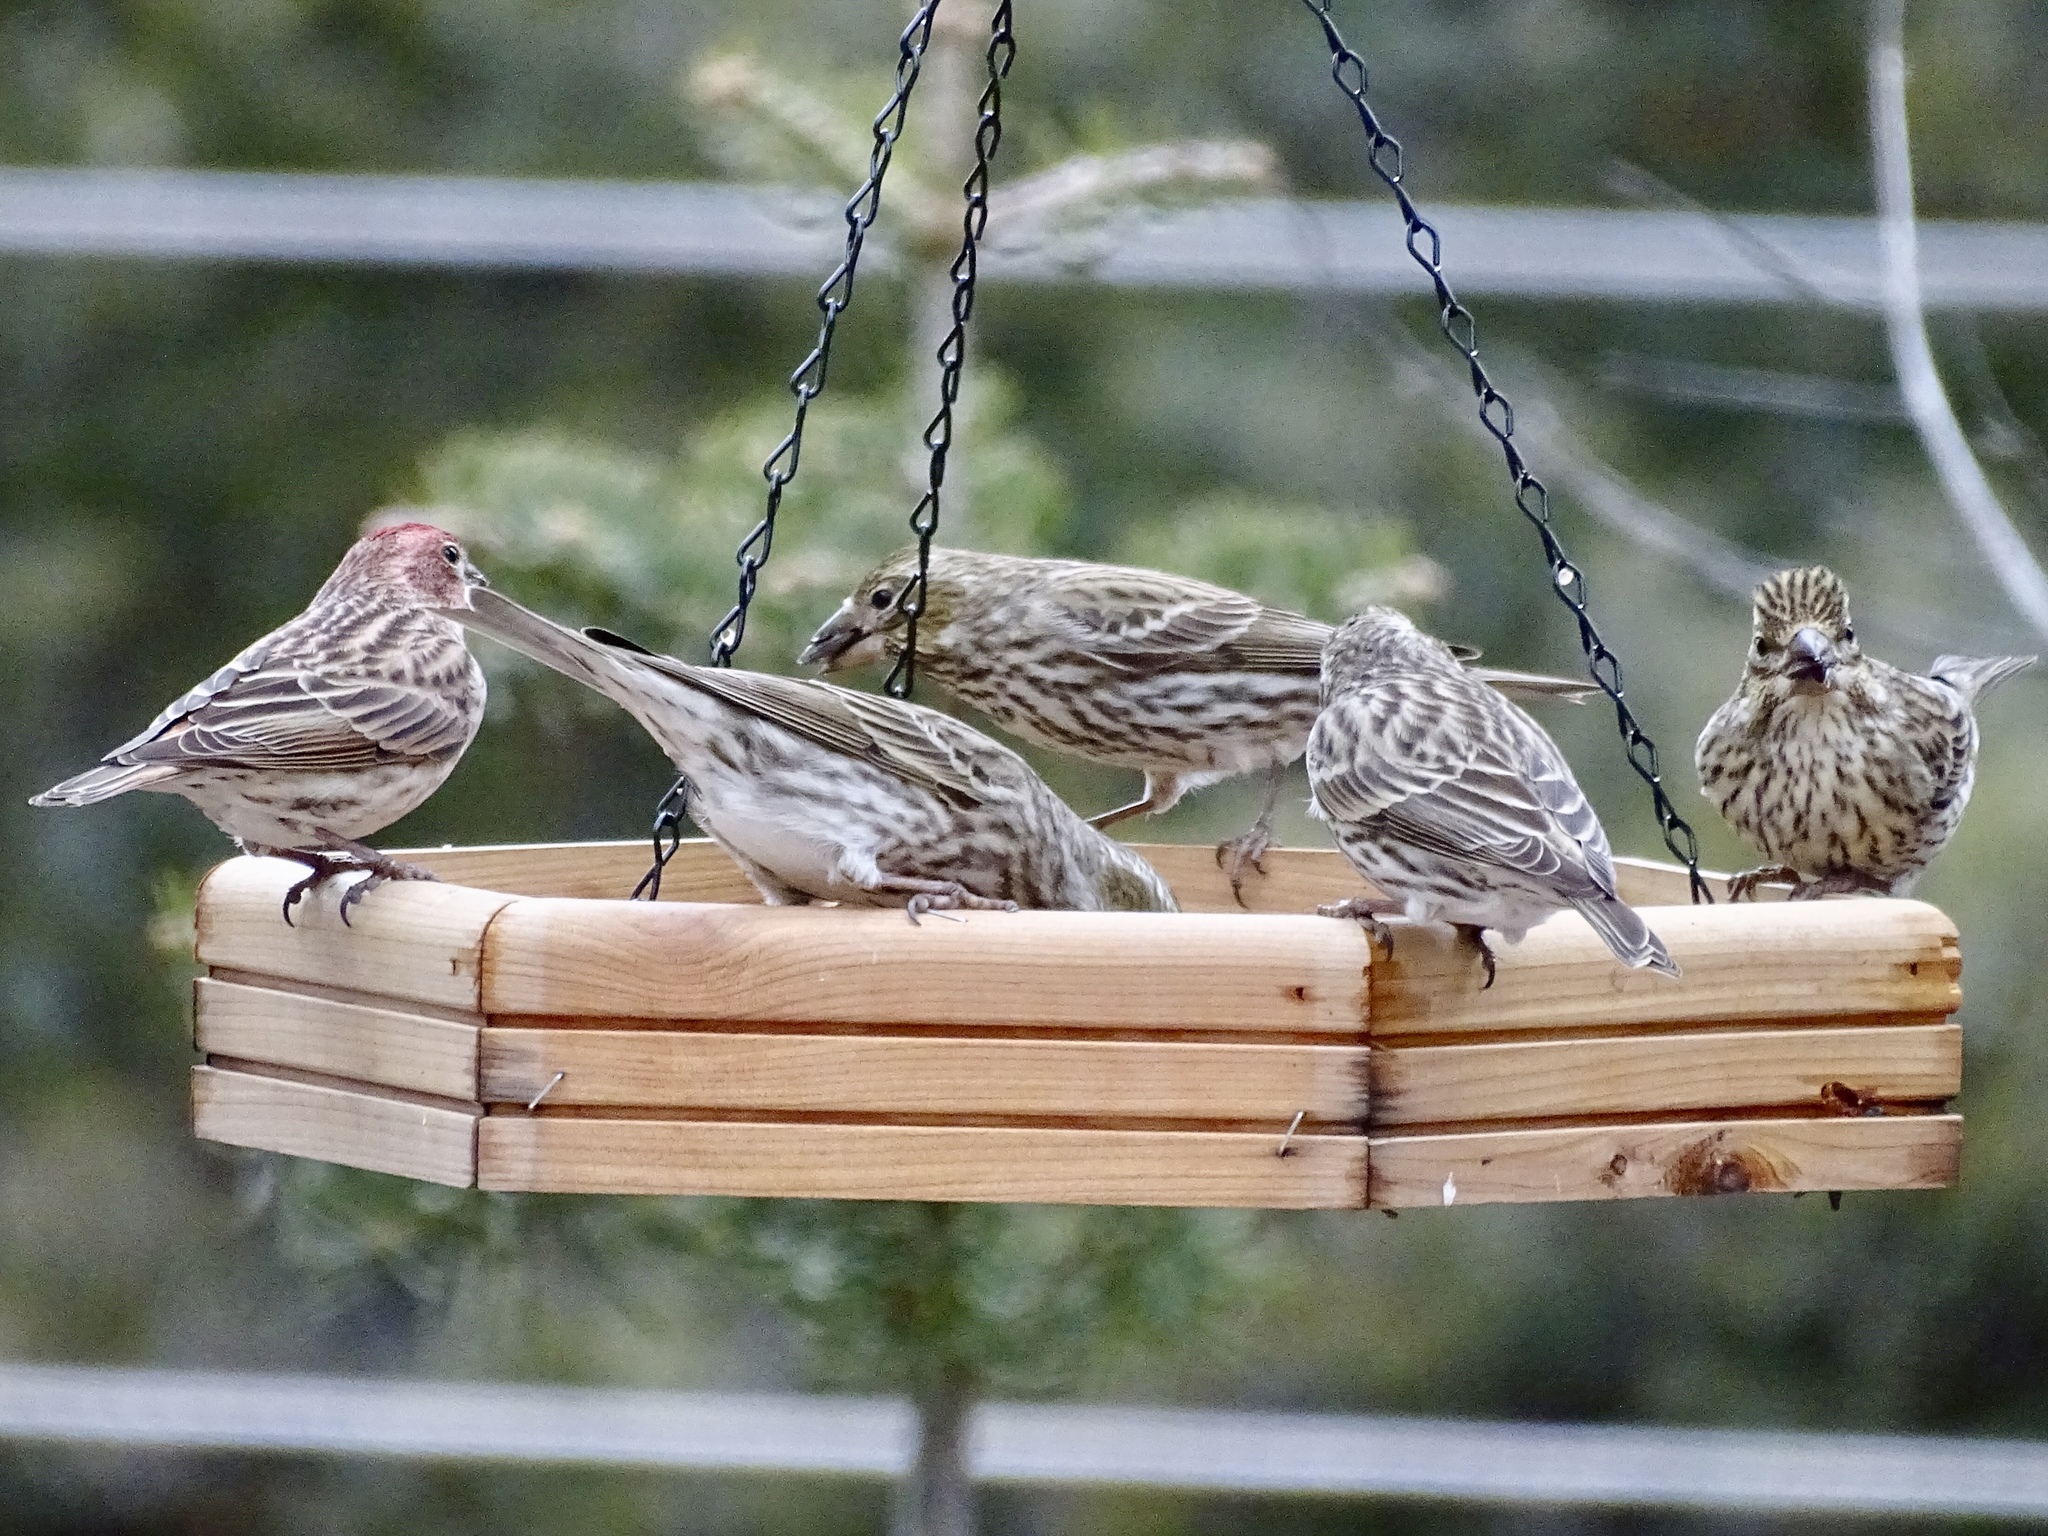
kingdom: Animalia
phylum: Chordata
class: Aves
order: Passeriformes
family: Fringillidae
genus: Haemorhous
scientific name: Haemorhous cassinii
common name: Cassin's finch
